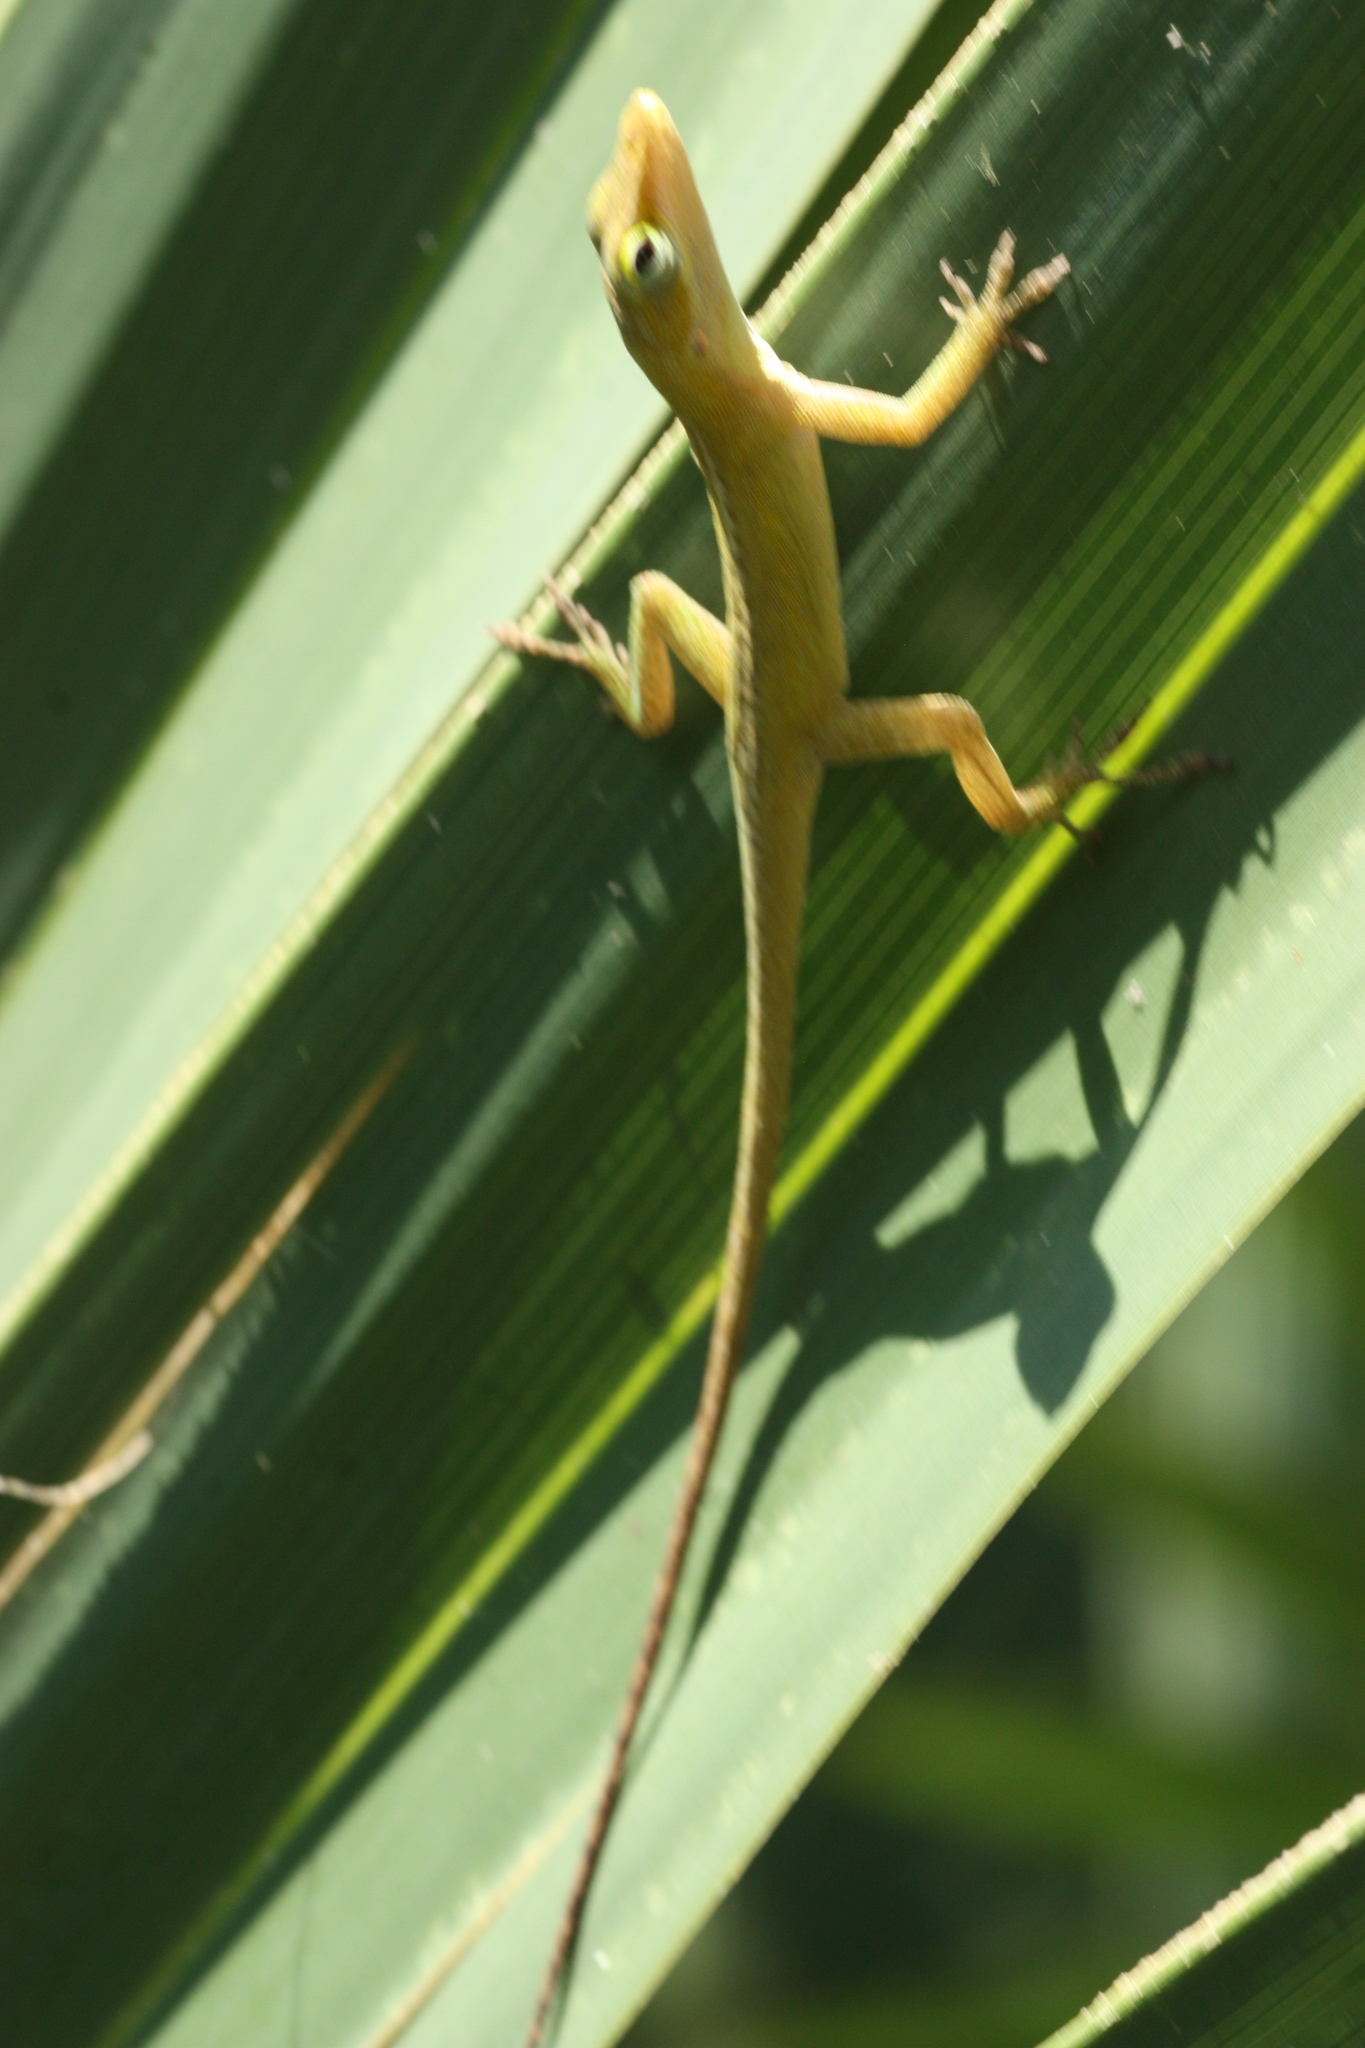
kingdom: Animalia
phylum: Chordata
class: Squamata
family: Dactyloidae
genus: Anolis
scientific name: Anolis carolinensis
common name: Green anole
